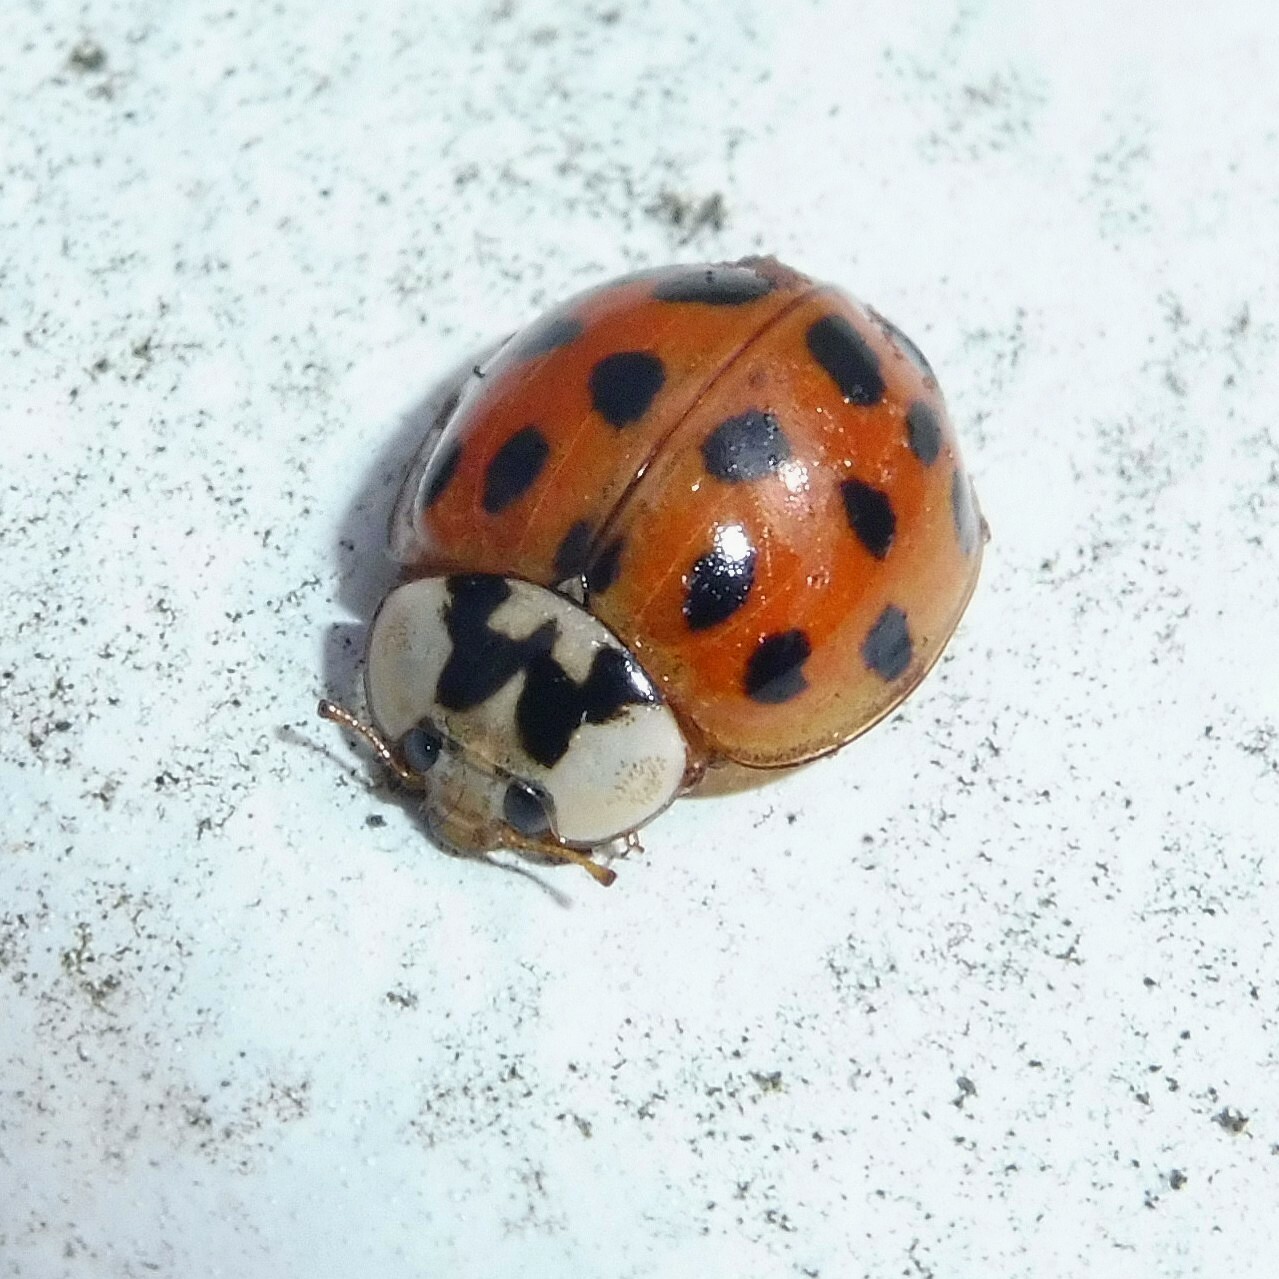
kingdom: Animalia
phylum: Arthropoda
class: Insecta
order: Coleoptera
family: Coccinellidae
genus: Harmonia
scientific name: Harmonia axyridis
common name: Harlequin ladybird
